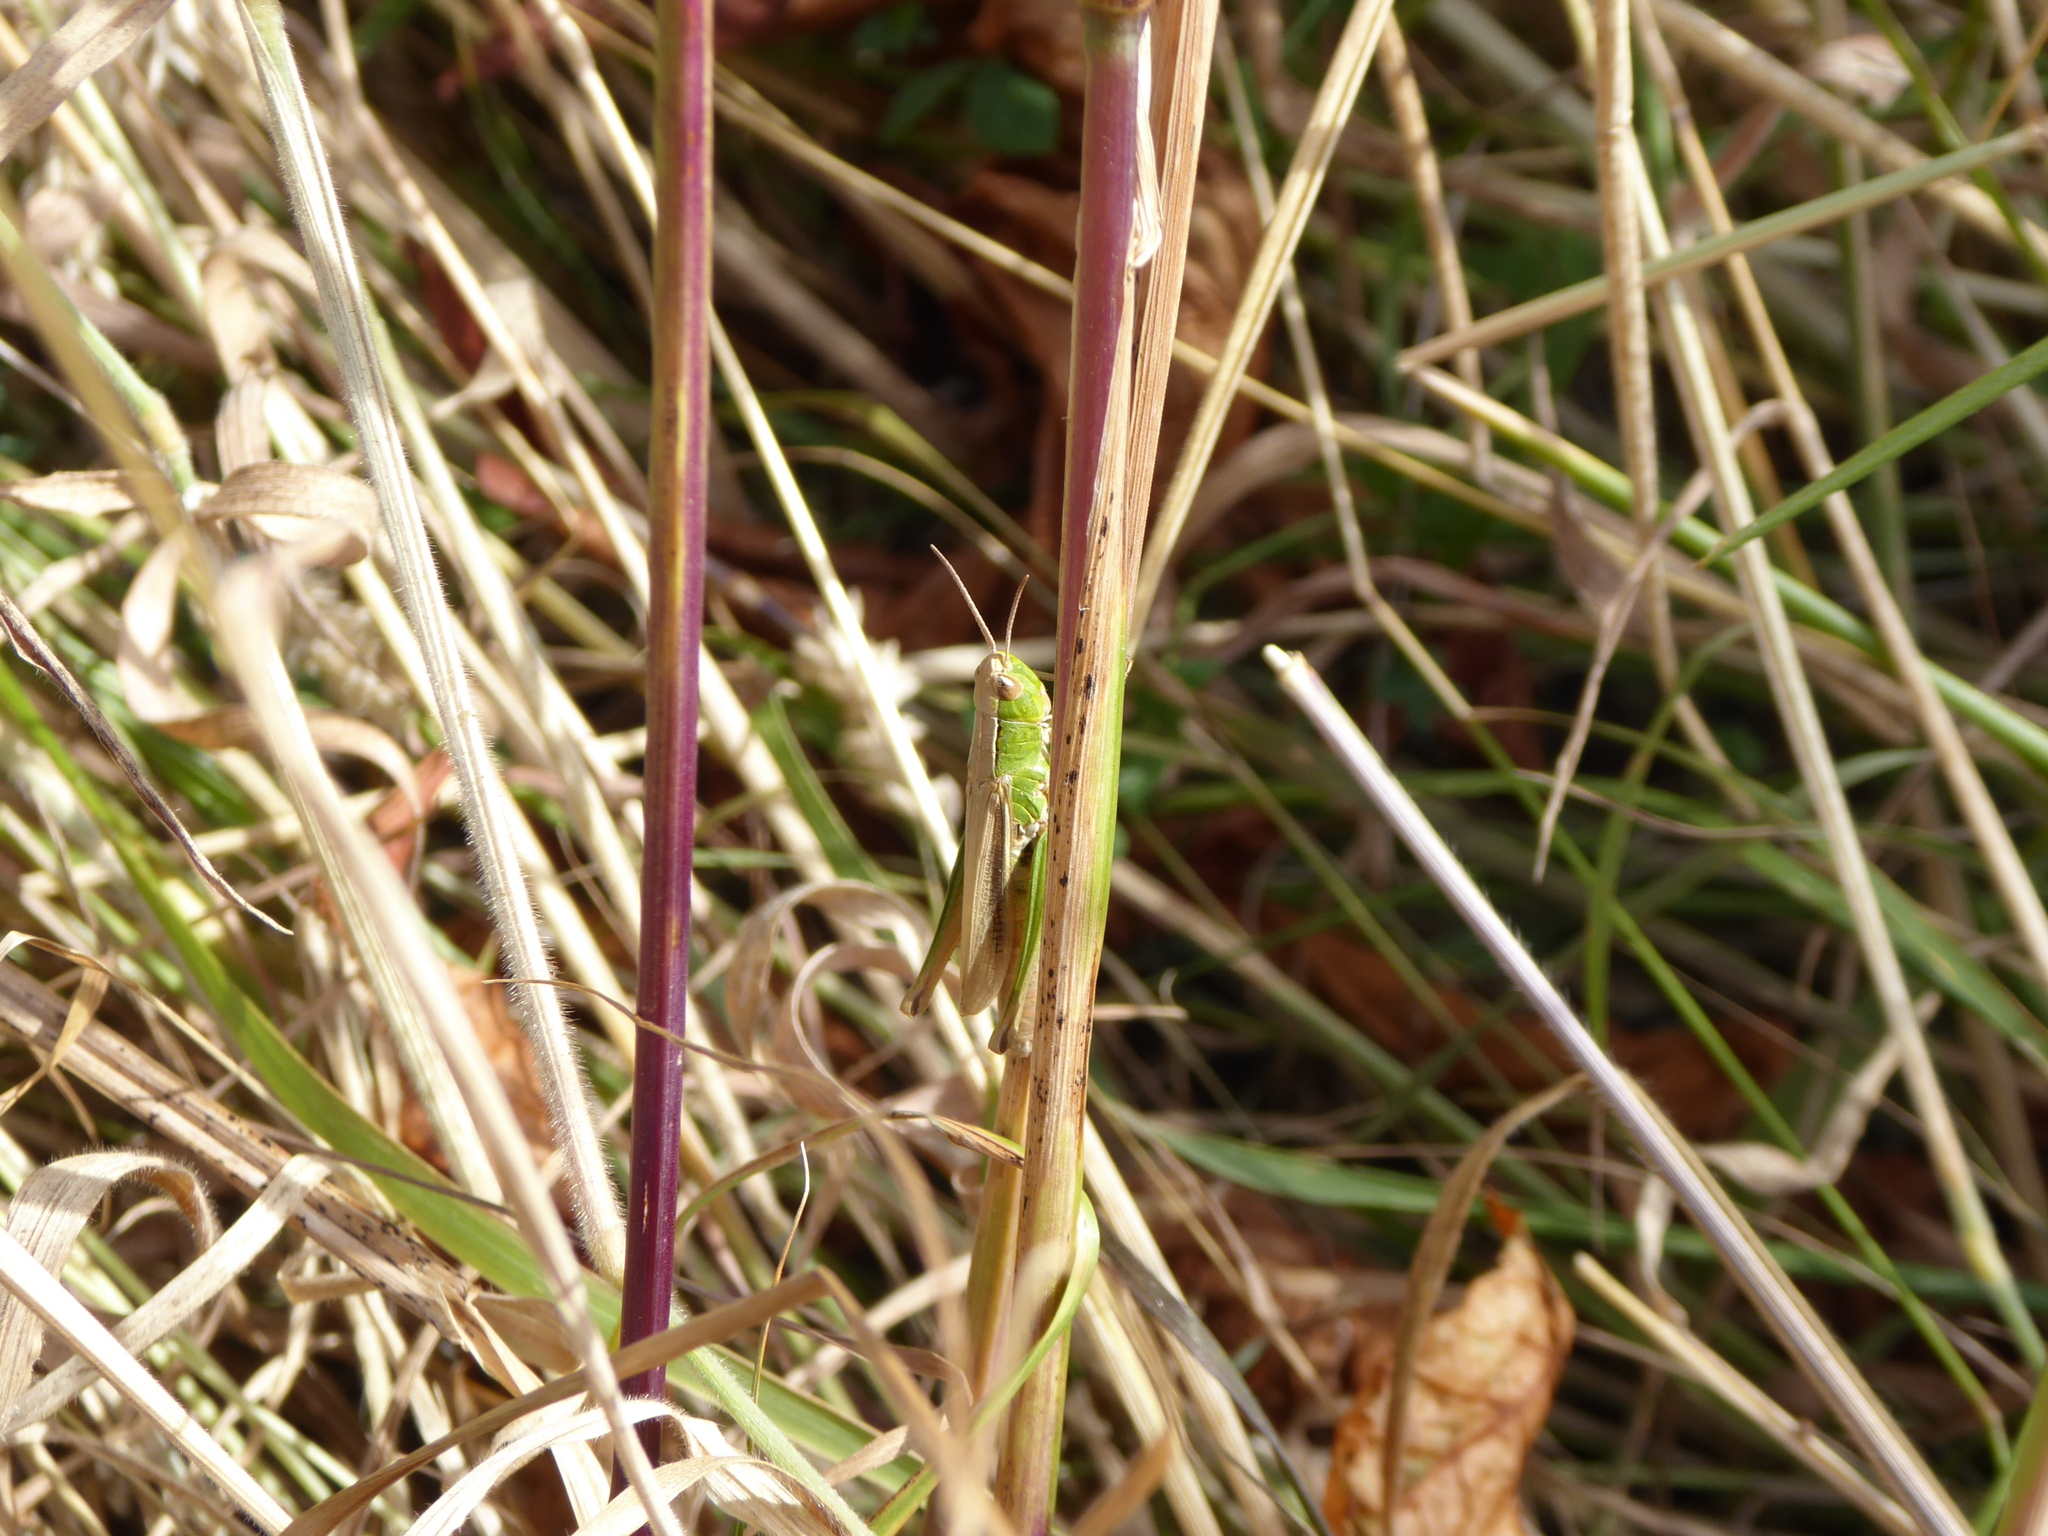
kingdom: Animalia
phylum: Arthropoda
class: Insecta
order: Orthoptera
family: Acrididae
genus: Chorthippus
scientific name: Chorthippus albomarginatus
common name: Lesser marsh grasshopper
